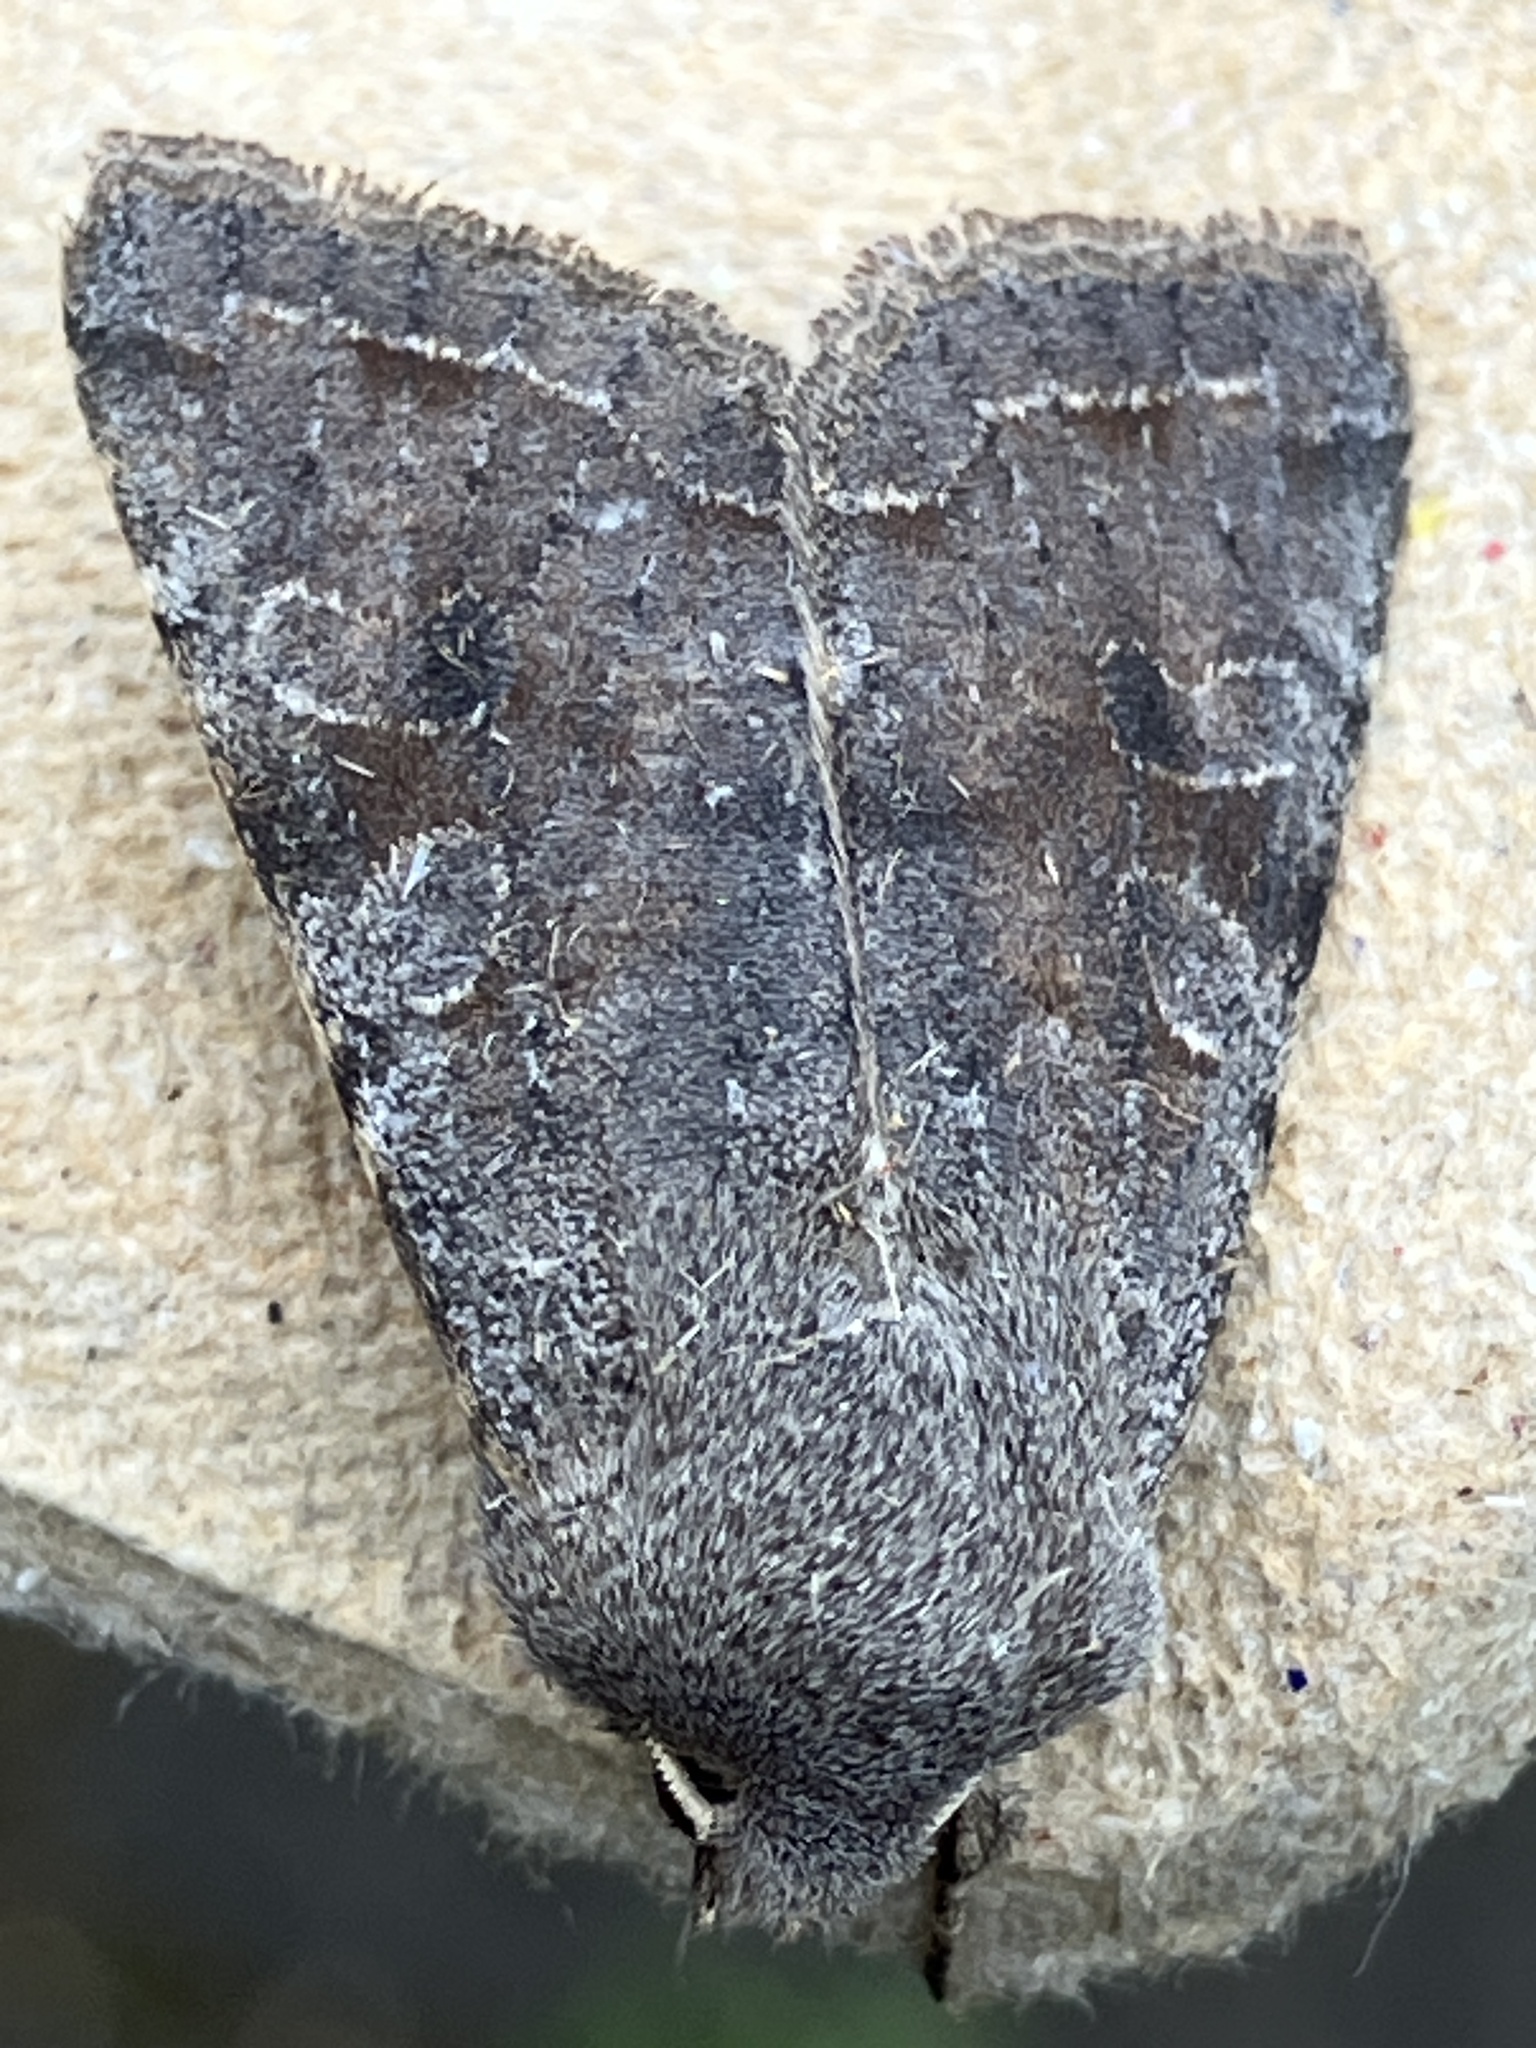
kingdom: Animalia
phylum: Arthropoda
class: Insecta
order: Lepidoptera
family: Noctuidae
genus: Orthosia
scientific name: Orthosia incerta
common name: Clouded drab
